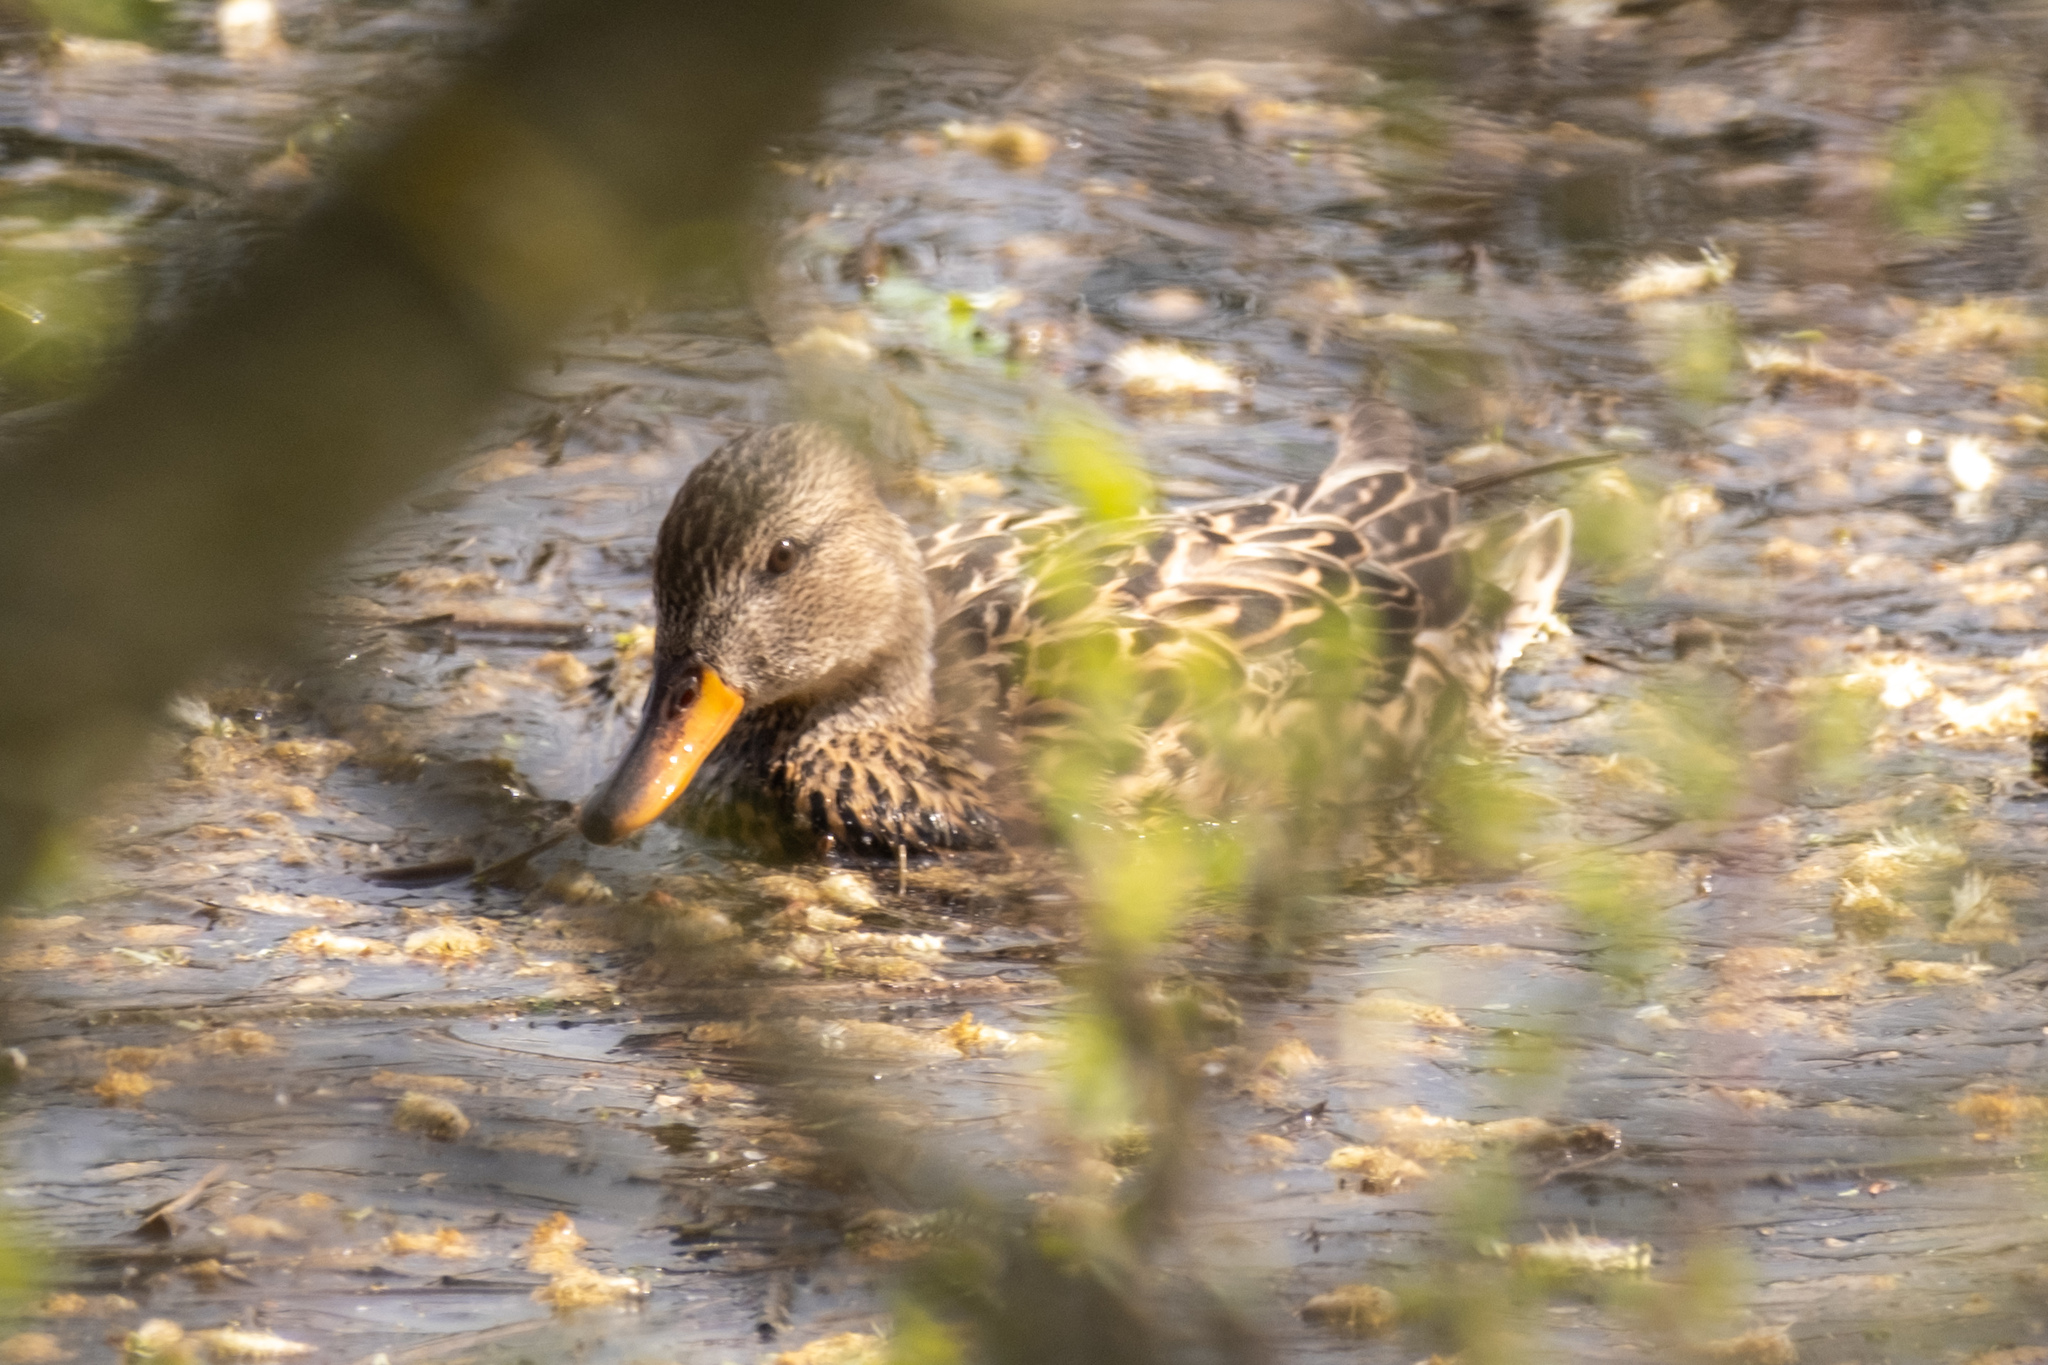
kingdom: Animalia
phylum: Chordata
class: Aves
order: Anseriformes
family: Anatidae
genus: Mareca
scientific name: Mareca strepera
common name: Gadwall
